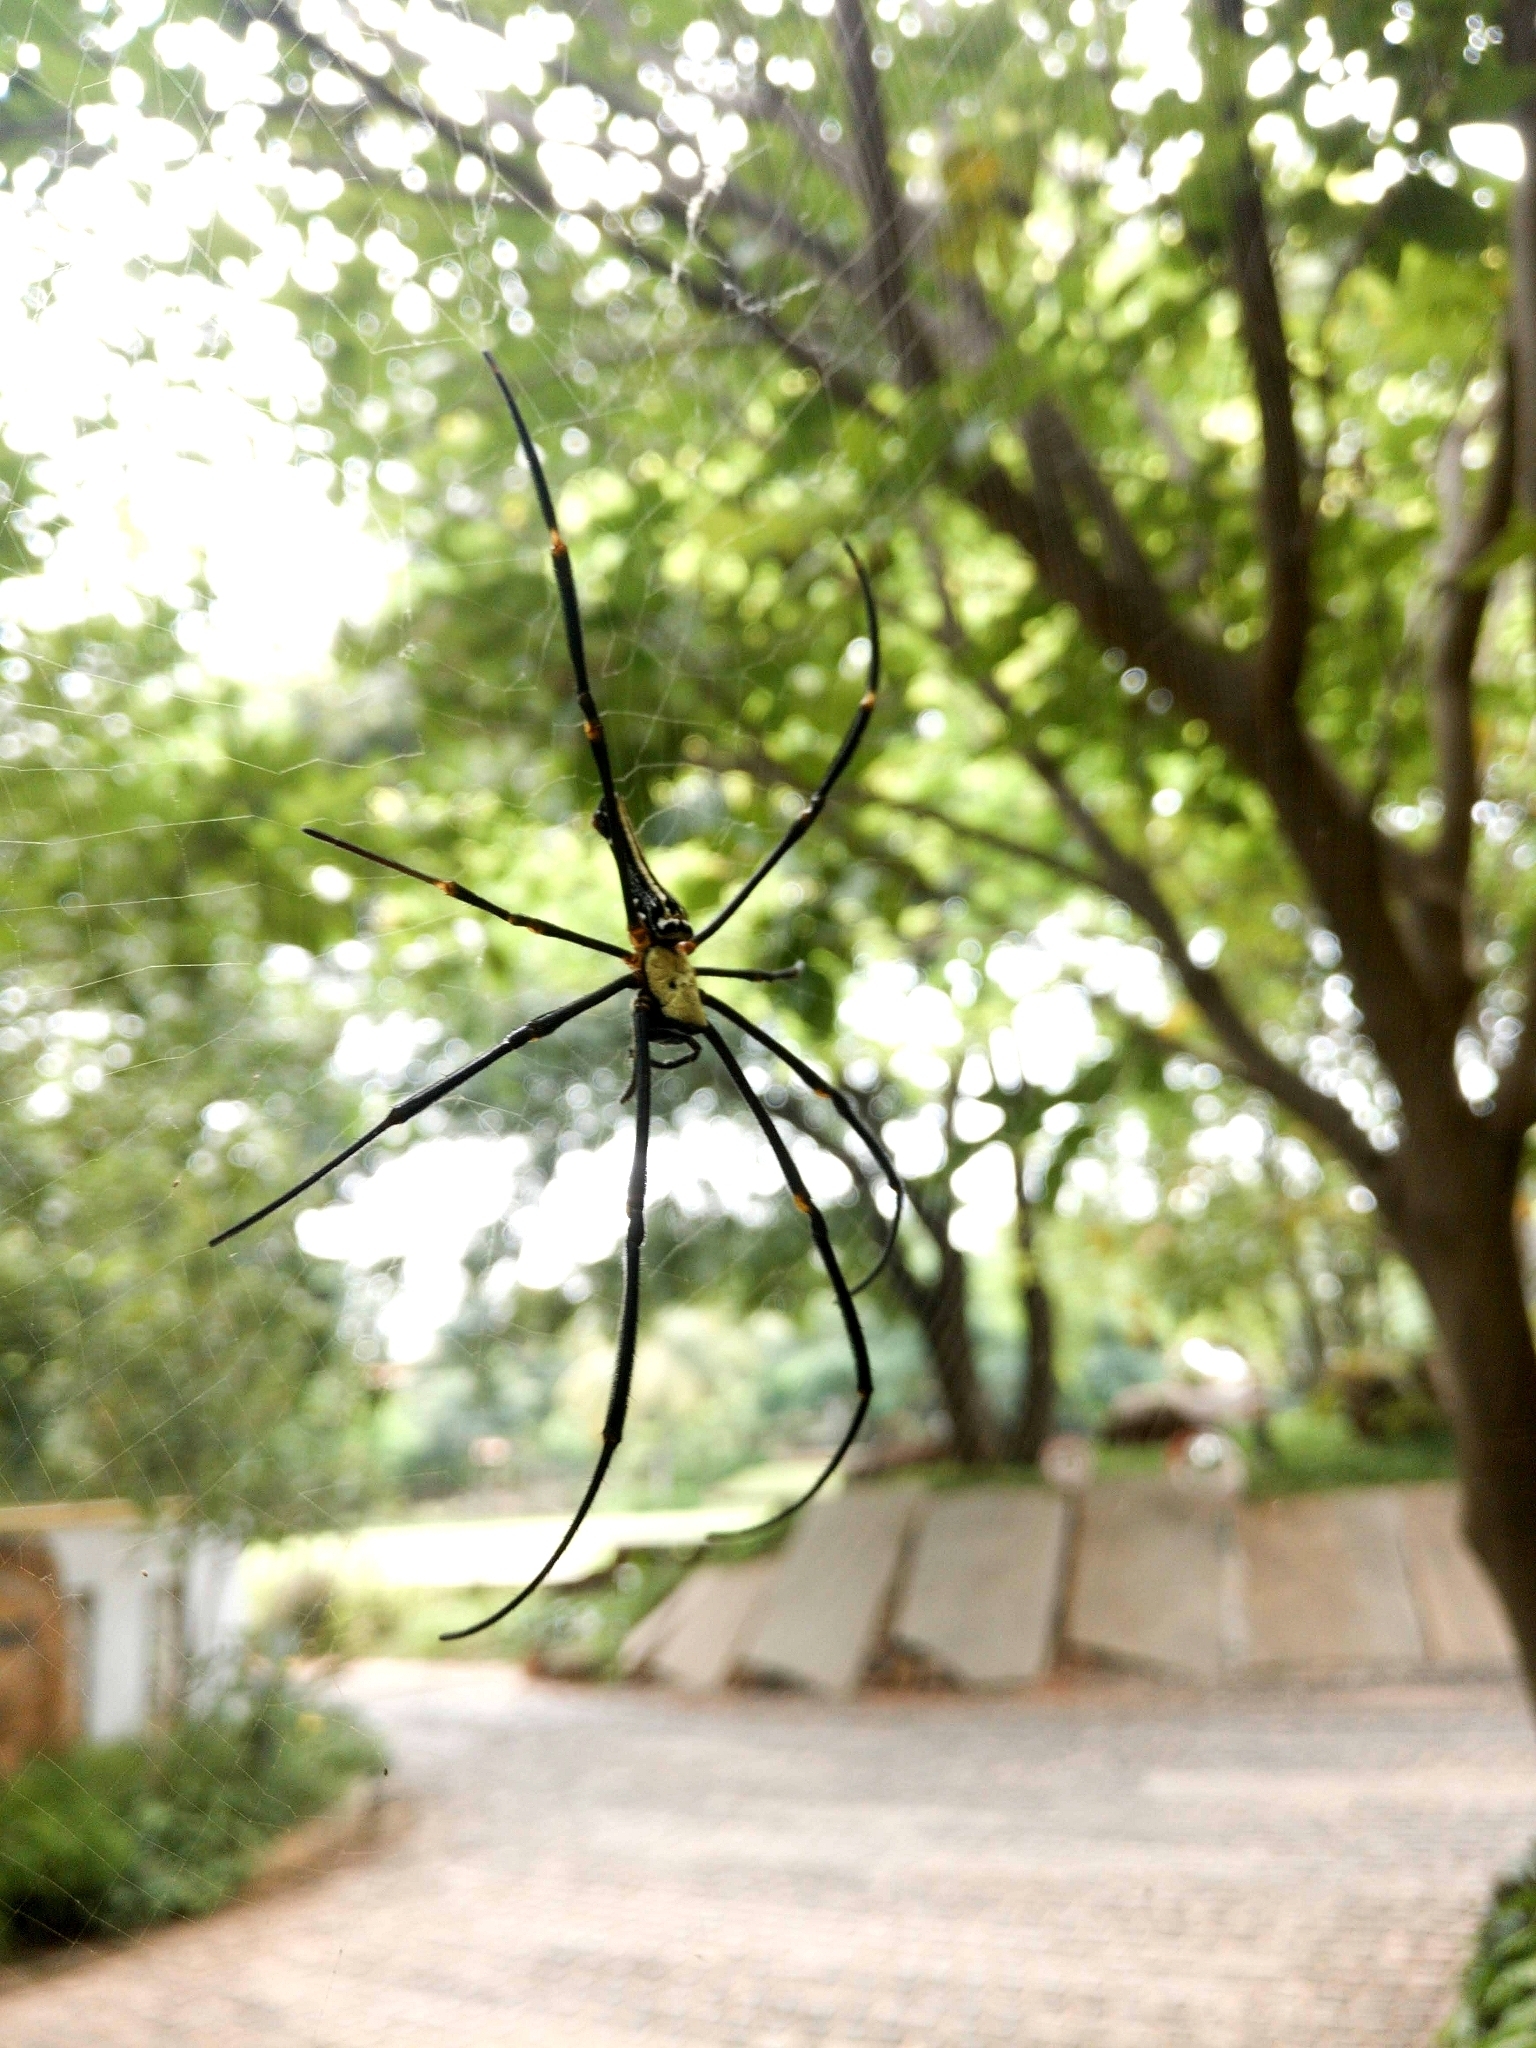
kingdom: Animalia
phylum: Arthropoda
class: Arachnida
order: Araneae
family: Araneidae
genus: Nephila
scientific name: Nephila pilipes
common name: Giant golden orb weaver
